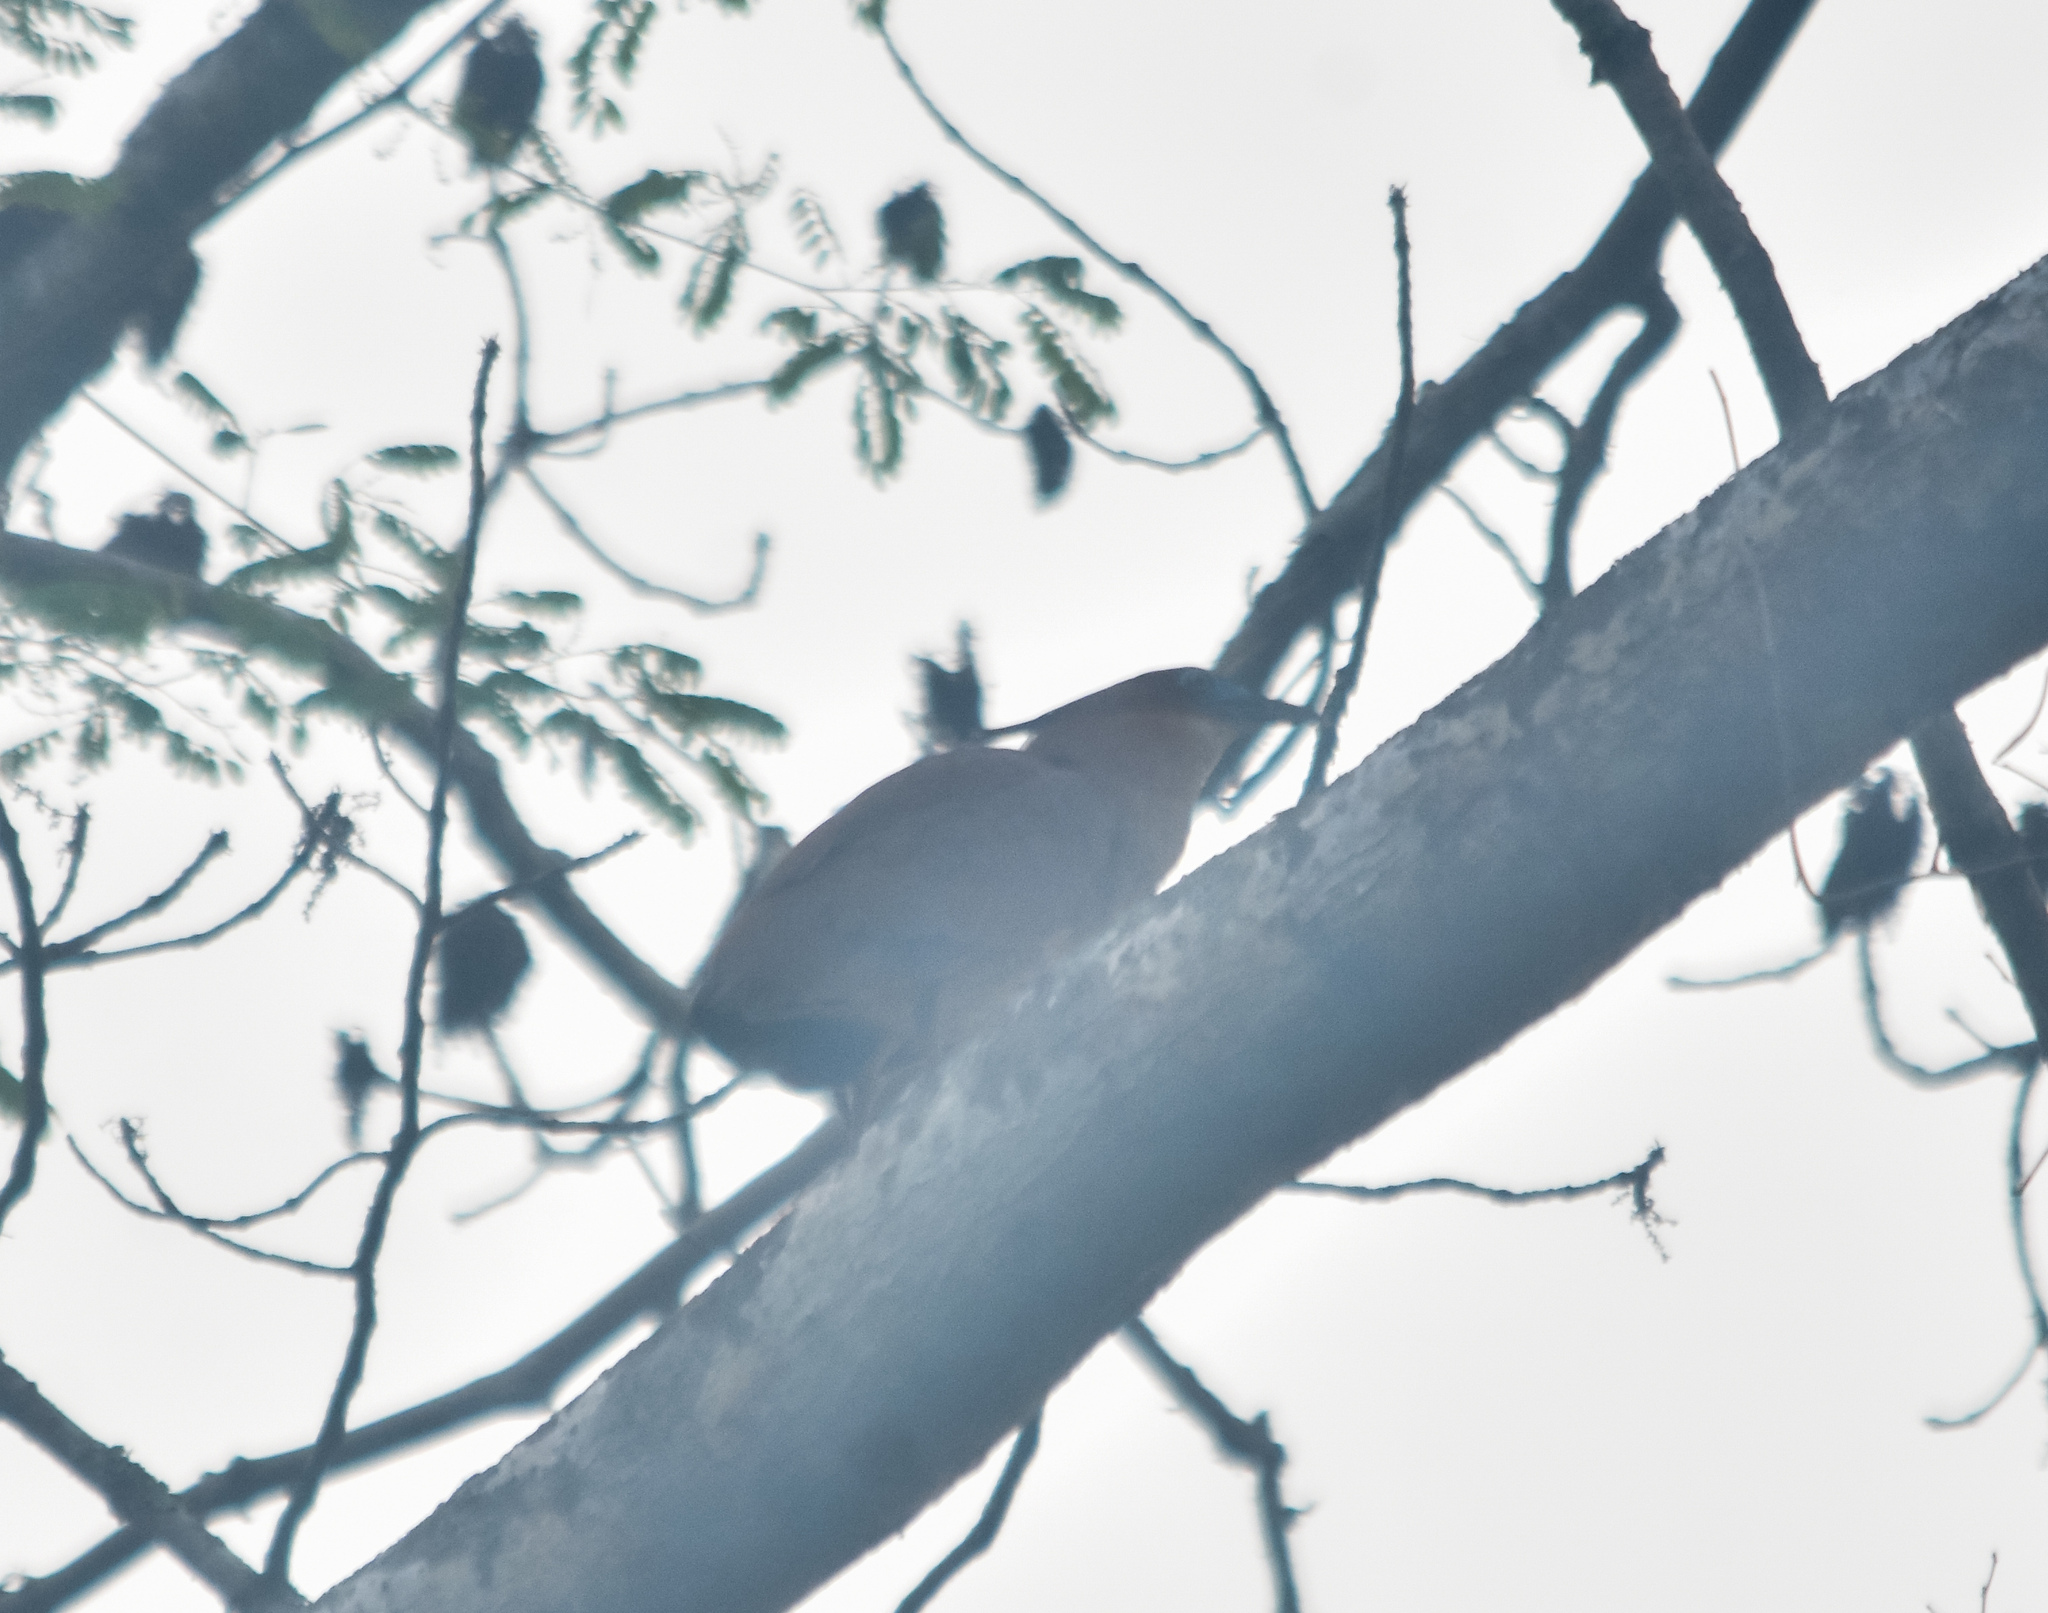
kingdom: Animalia
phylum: Chordata
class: Aves
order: Pelecaniformes
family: Ardeidae
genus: Gorsachius
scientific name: Gorsachius melanolophus
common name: Malayan night heron
